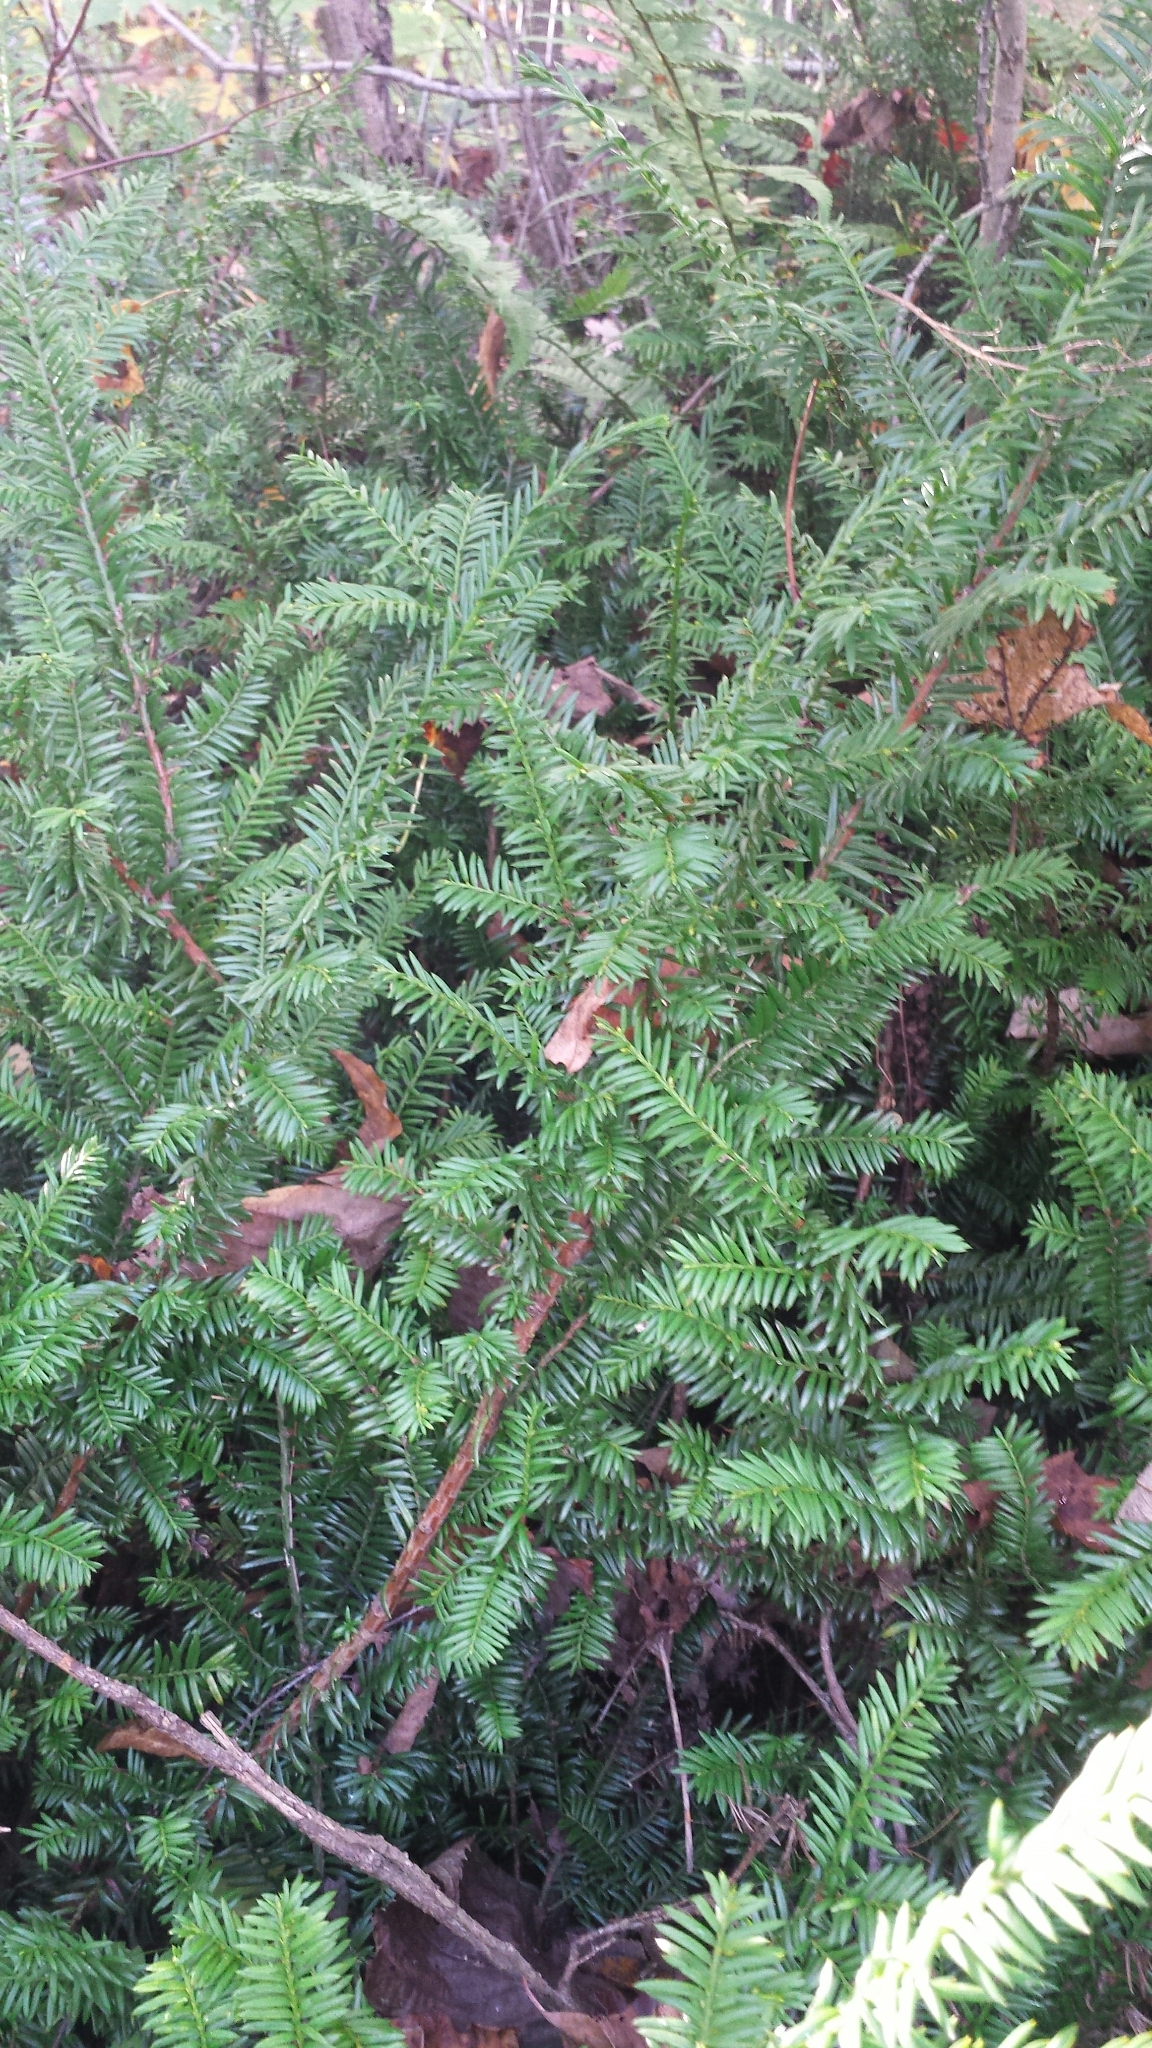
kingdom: Plantae
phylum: Tracheophyta
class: Pinopsida
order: Pinales
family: Taxaceae
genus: Taxus
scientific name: Taxus canadensis
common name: American yew
